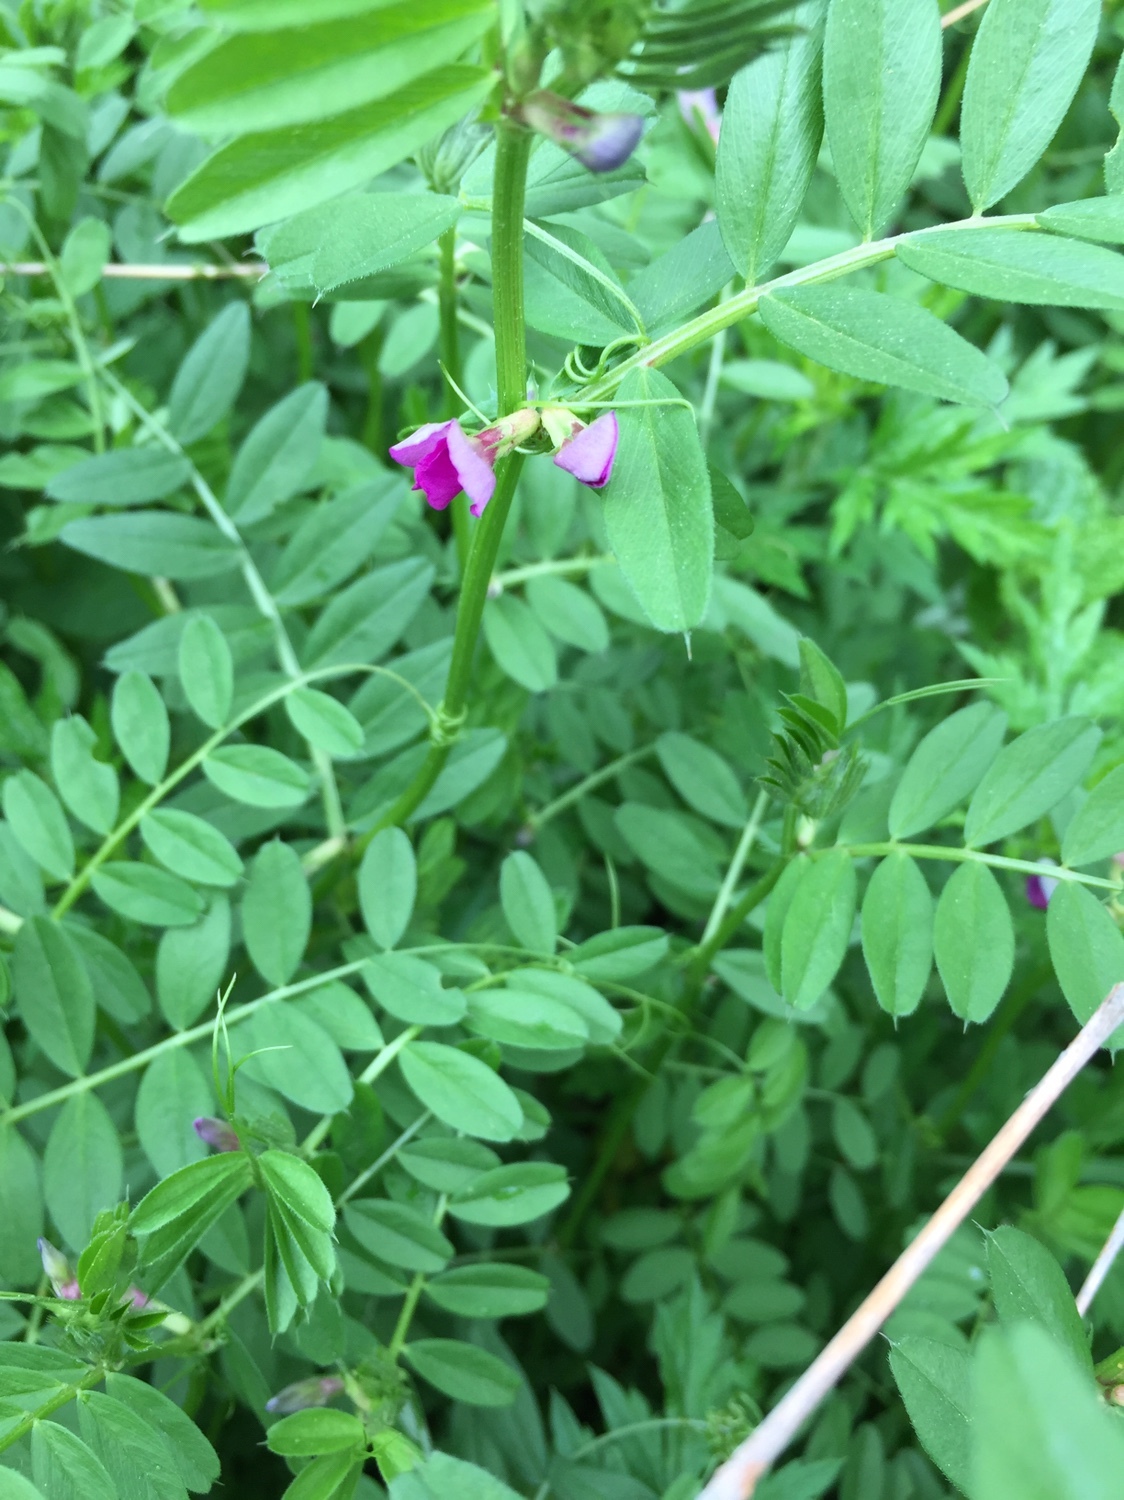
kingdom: Plantae
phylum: Tracheophyta
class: Magnoliopsida
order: Fabales
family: Fabaceae
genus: Vicia
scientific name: Vicia sativa
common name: Garden vetch
